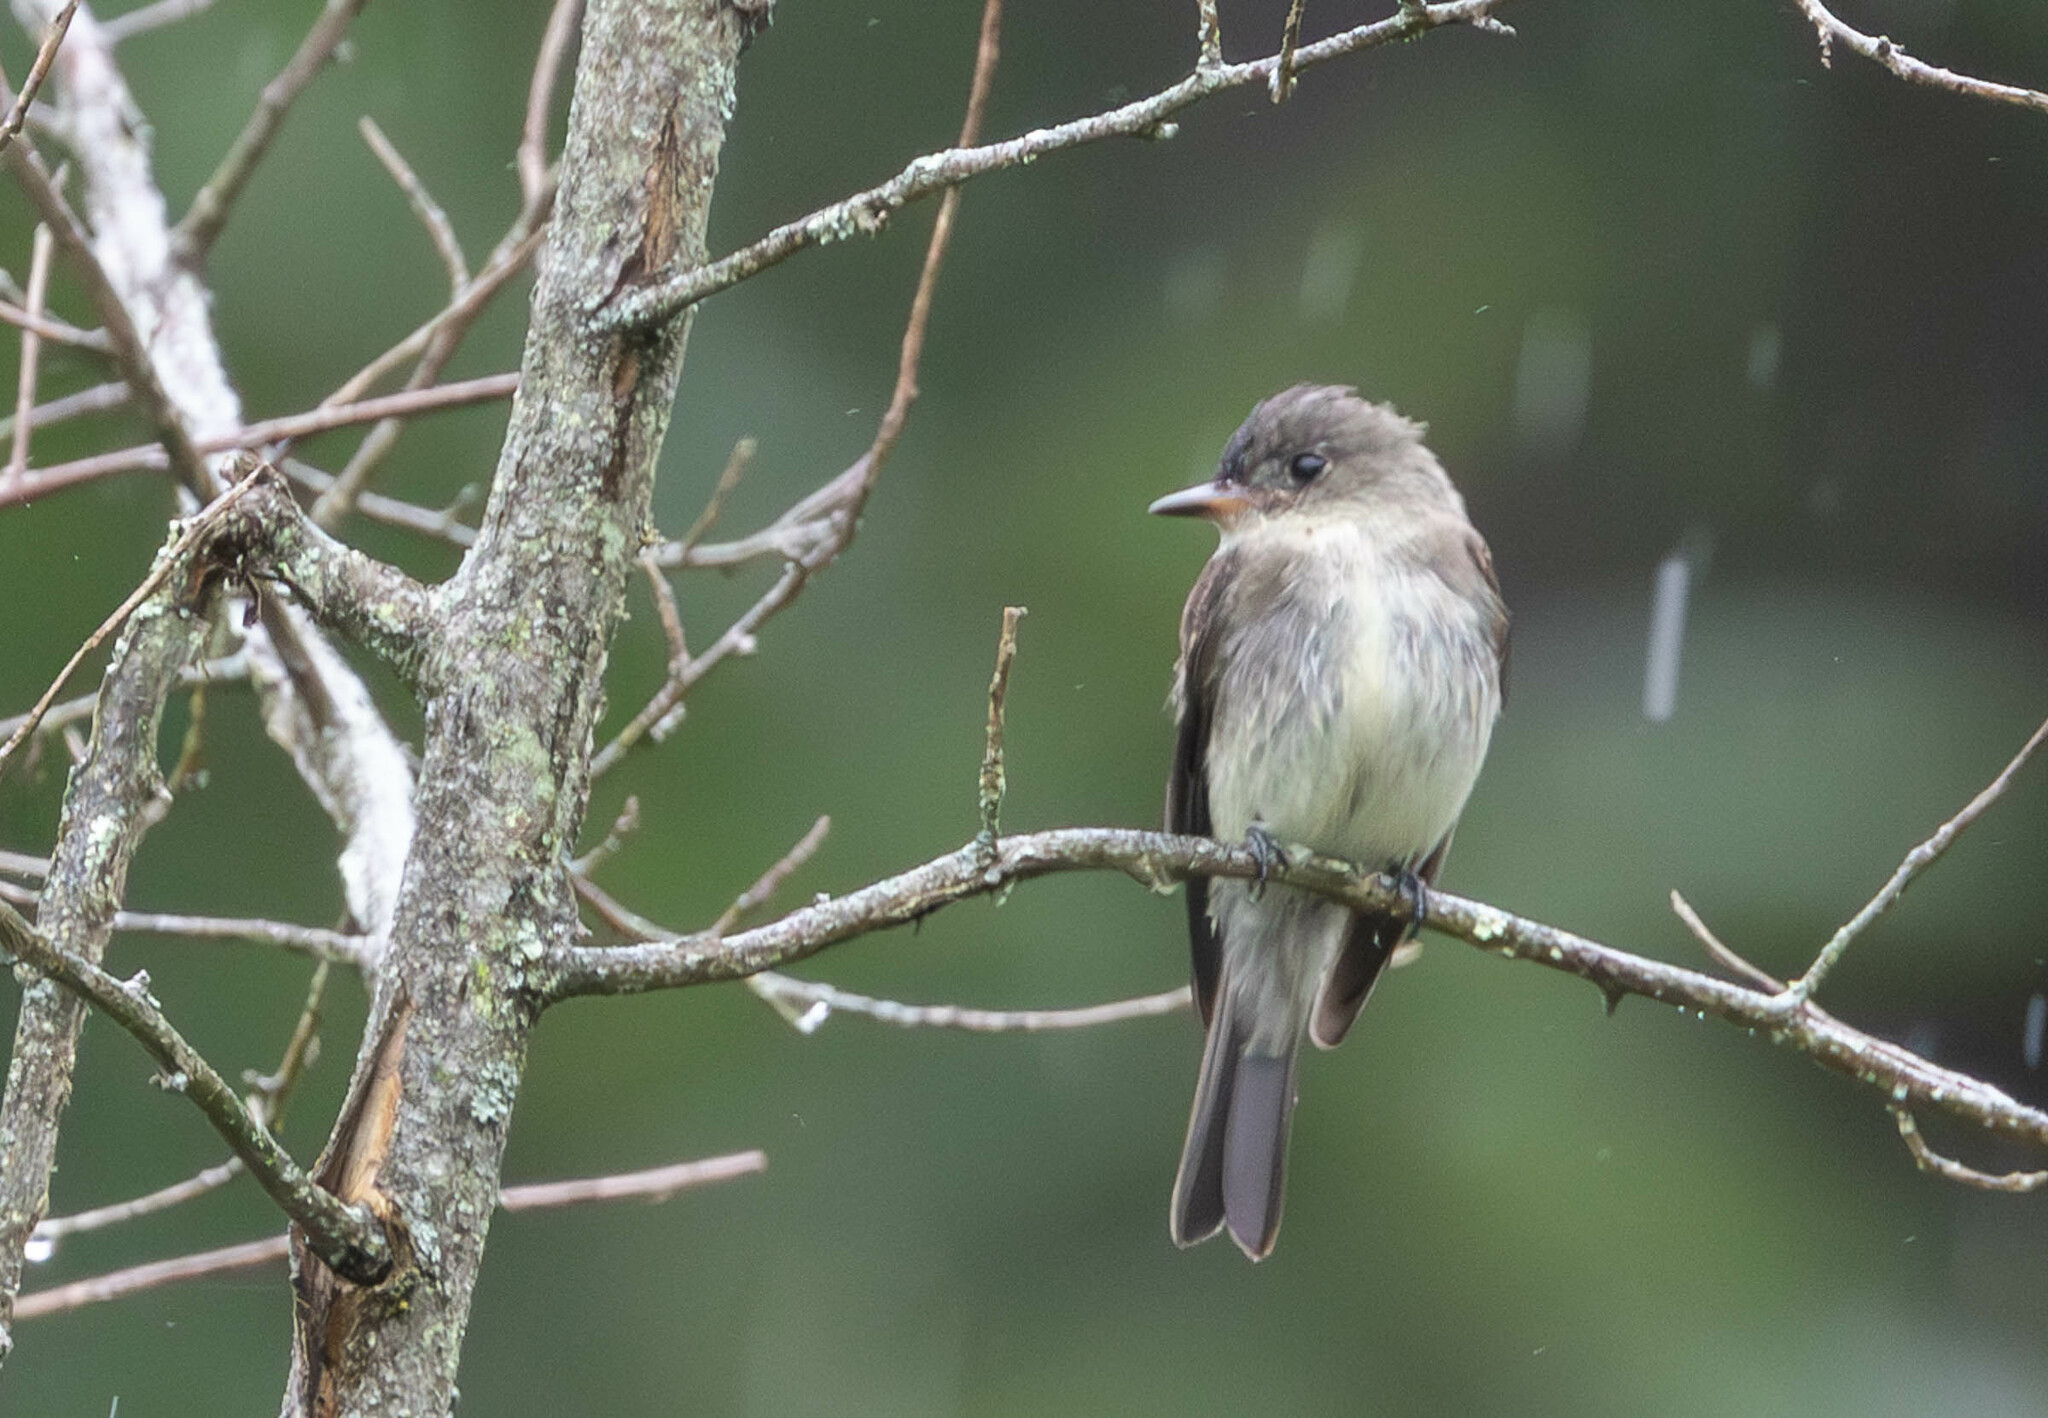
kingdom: Animalia
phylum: Chordata
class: Aves
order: Passeriformes
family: Tyrannidae
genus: Contopus
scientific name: Contopus virens
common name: Eastern wood-pewee
